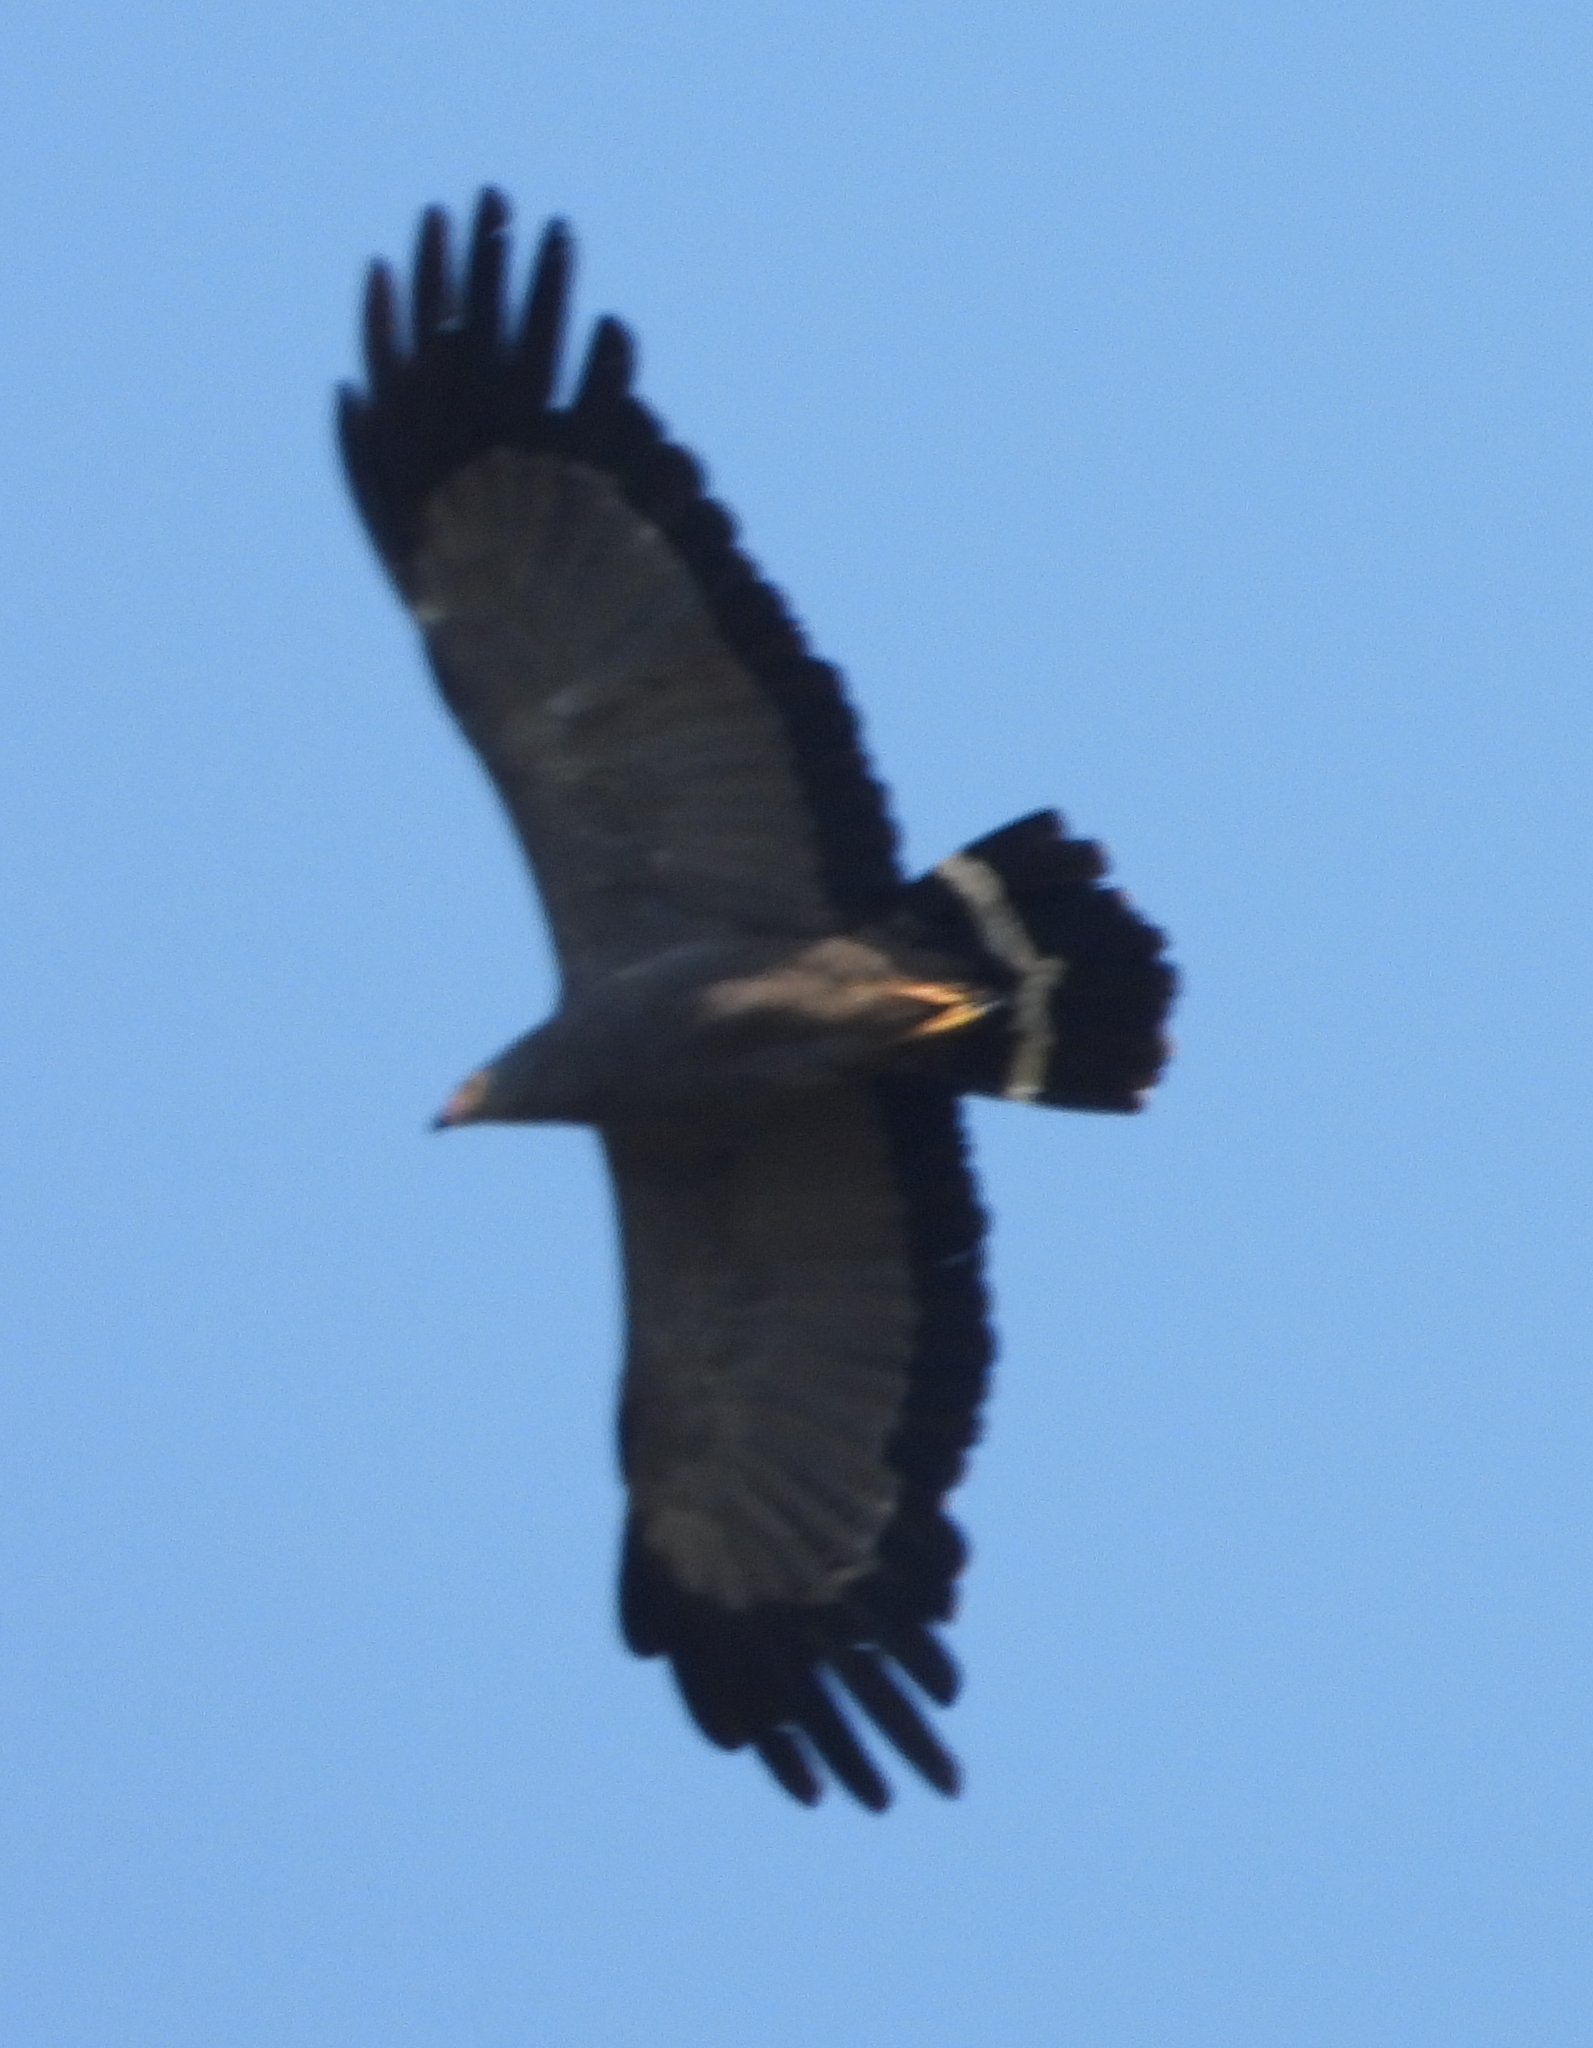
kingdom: Animalia
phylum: Chordata
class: Aves
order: Accipitriformes
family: Accipitridae
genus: Polyboroides
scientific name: Polyboroides typus
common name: African harrier-hawk
